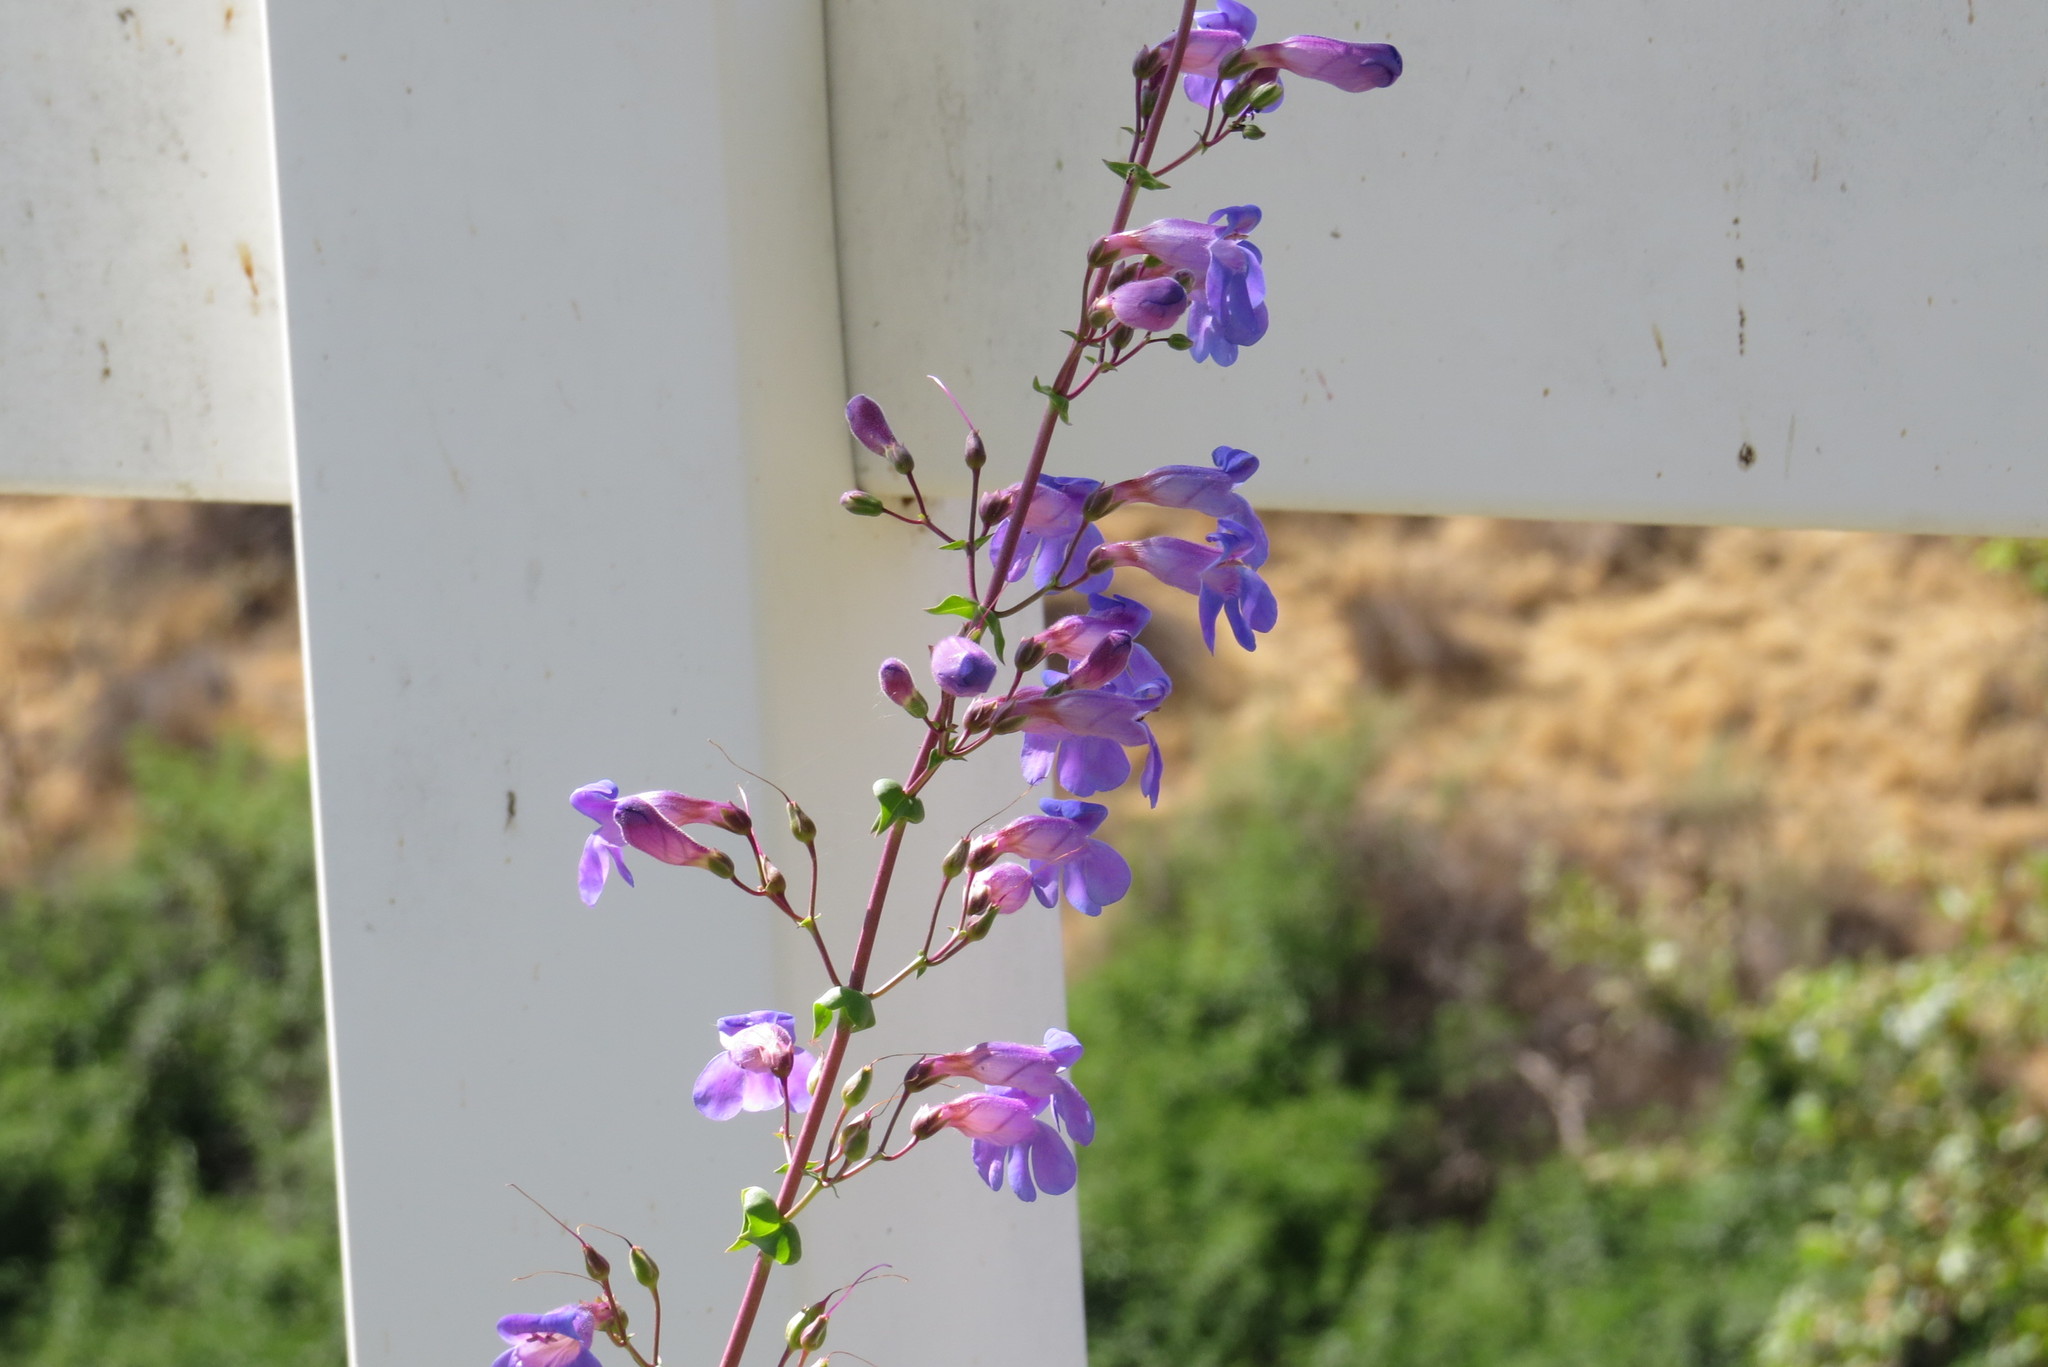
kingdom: Plantae
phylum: Tracheophyta
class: Magnoliopsida
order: Lamiales
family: Plantaginaceae
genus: Penstemon
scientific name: Penstemon spectabilis
